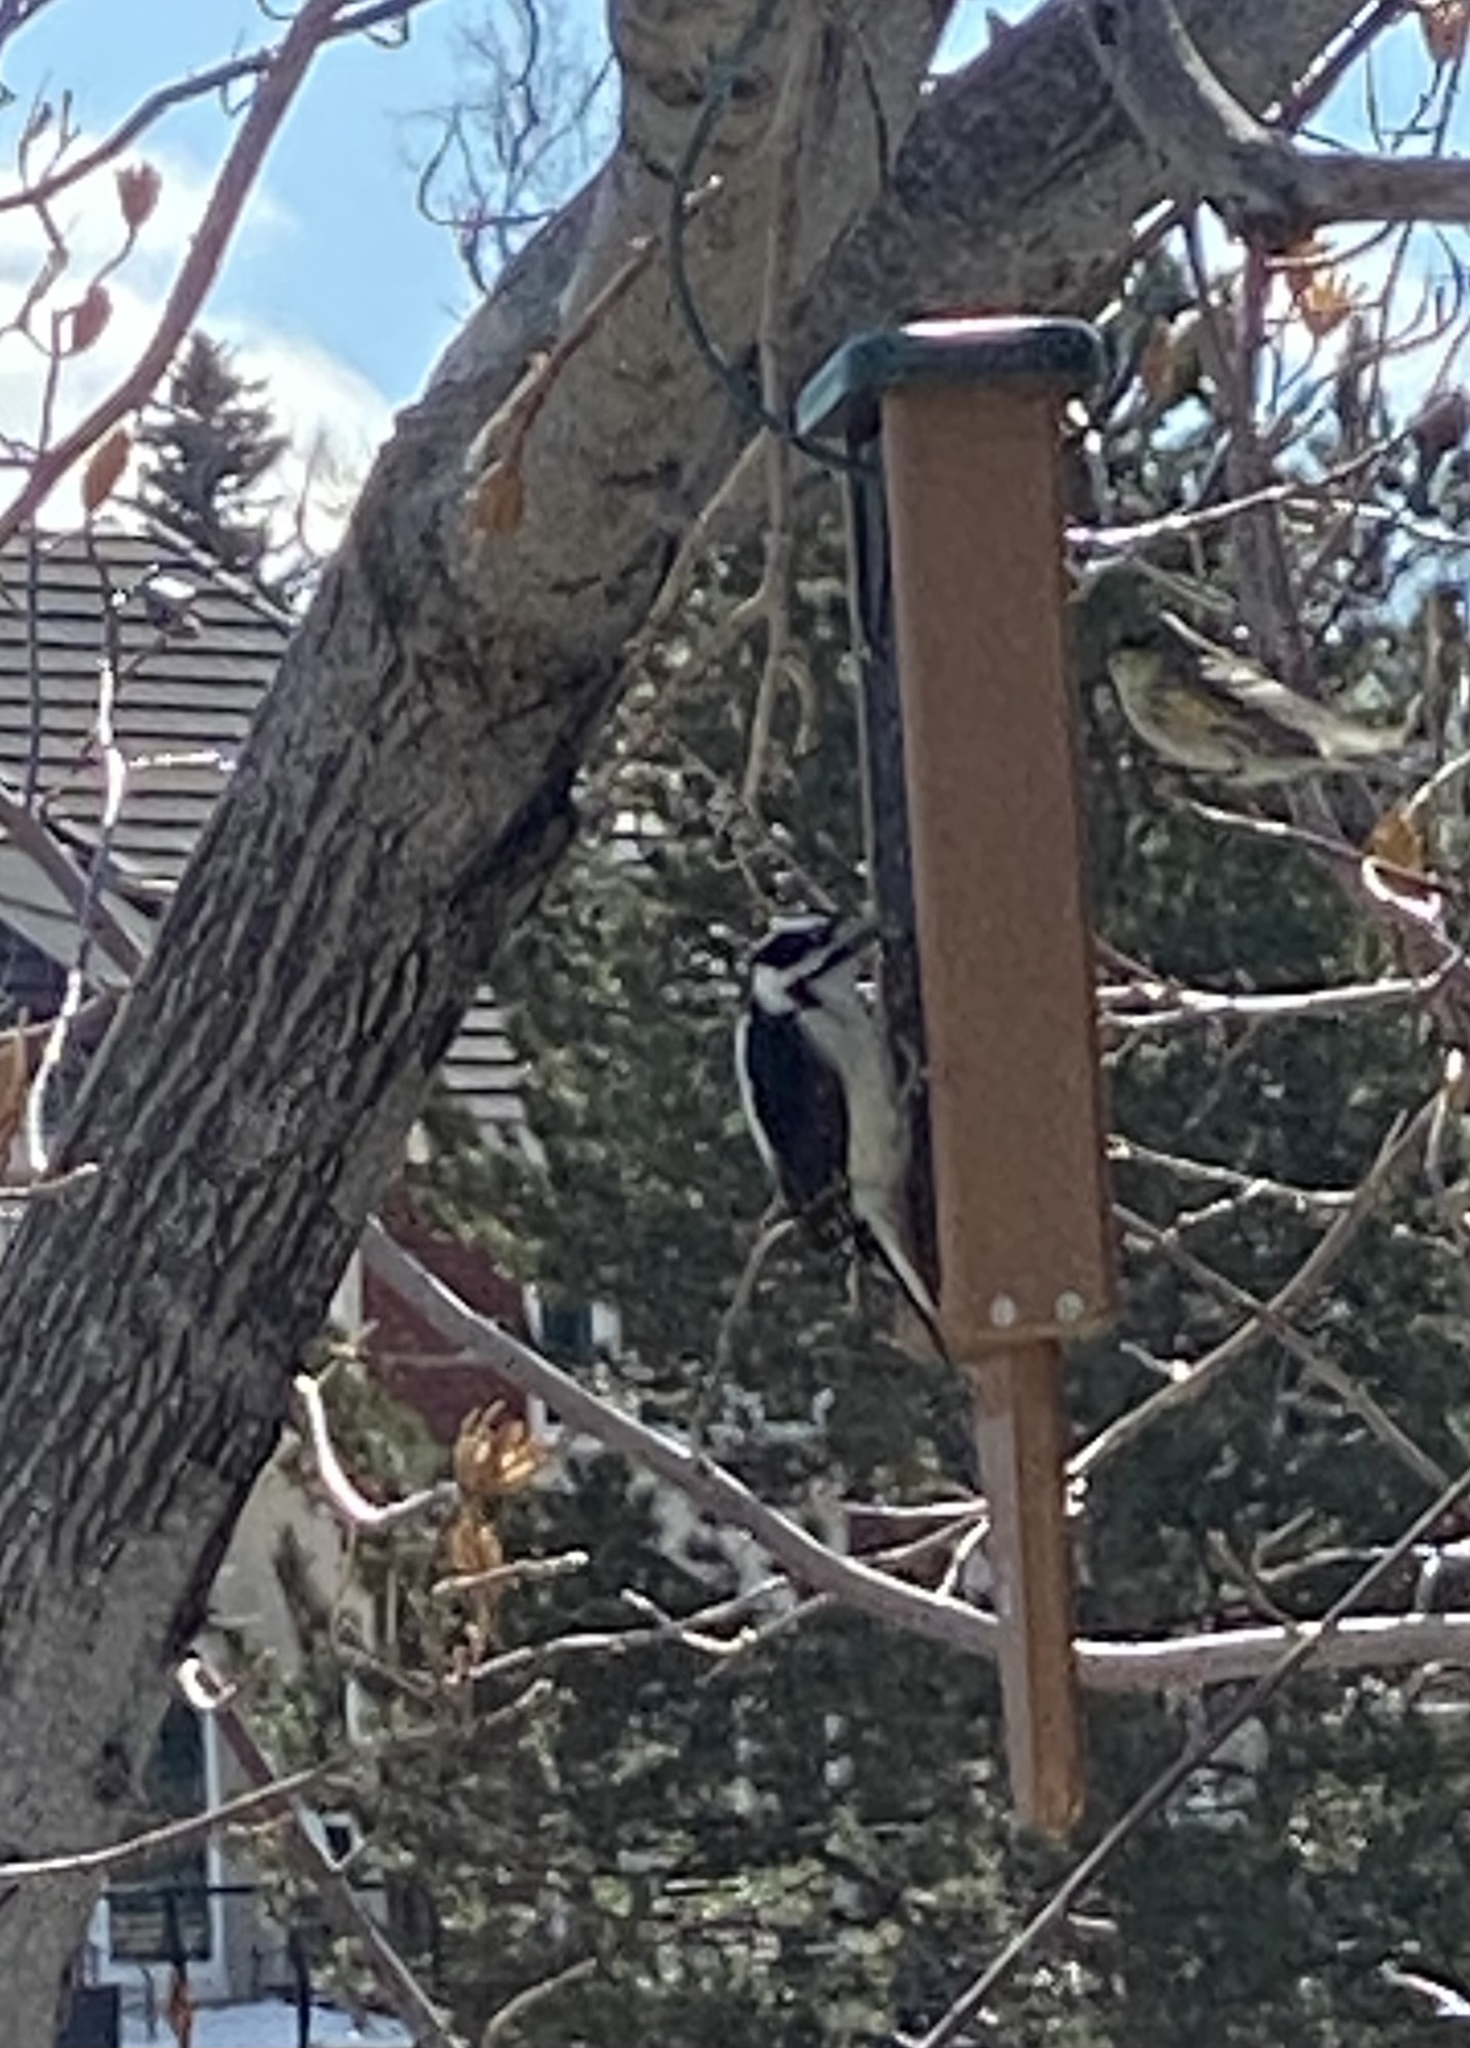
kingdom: Animalia
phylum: Chordata
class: Aves
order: Piciformes
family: Picidae
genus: Dryobates
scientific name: Dryobates pubescens
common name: Downy woodpecker
